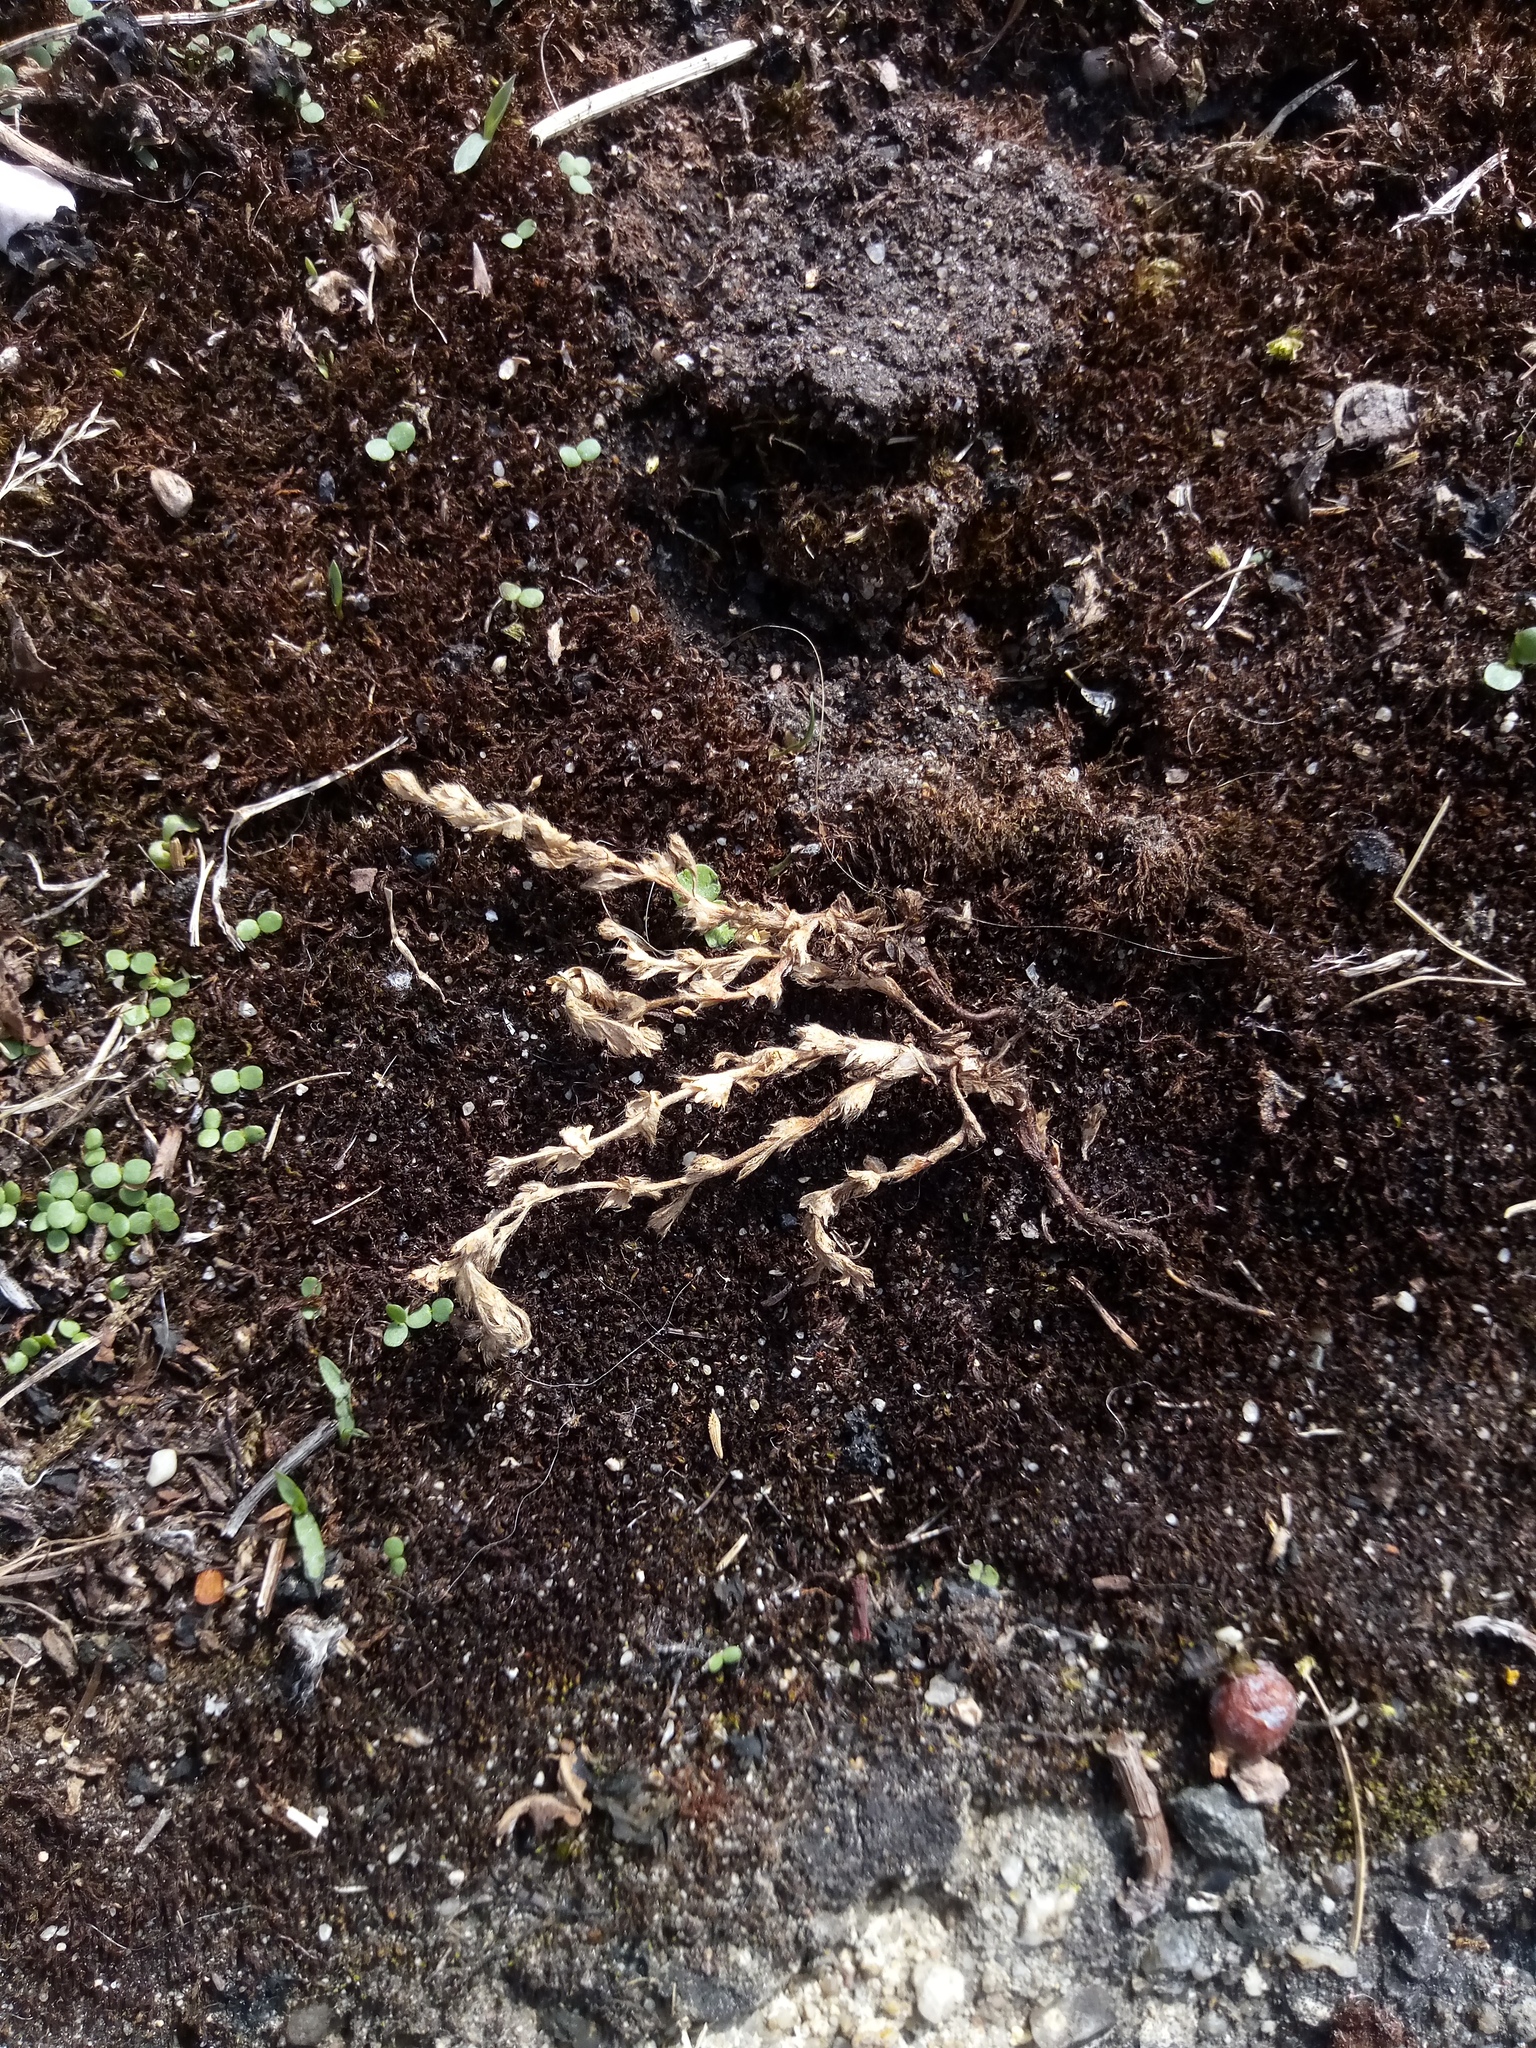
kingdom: Plantae
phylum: Tracheophyta
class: Magnoliopsida
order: Rosales
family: Rosaceae
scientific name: Rosaceae
